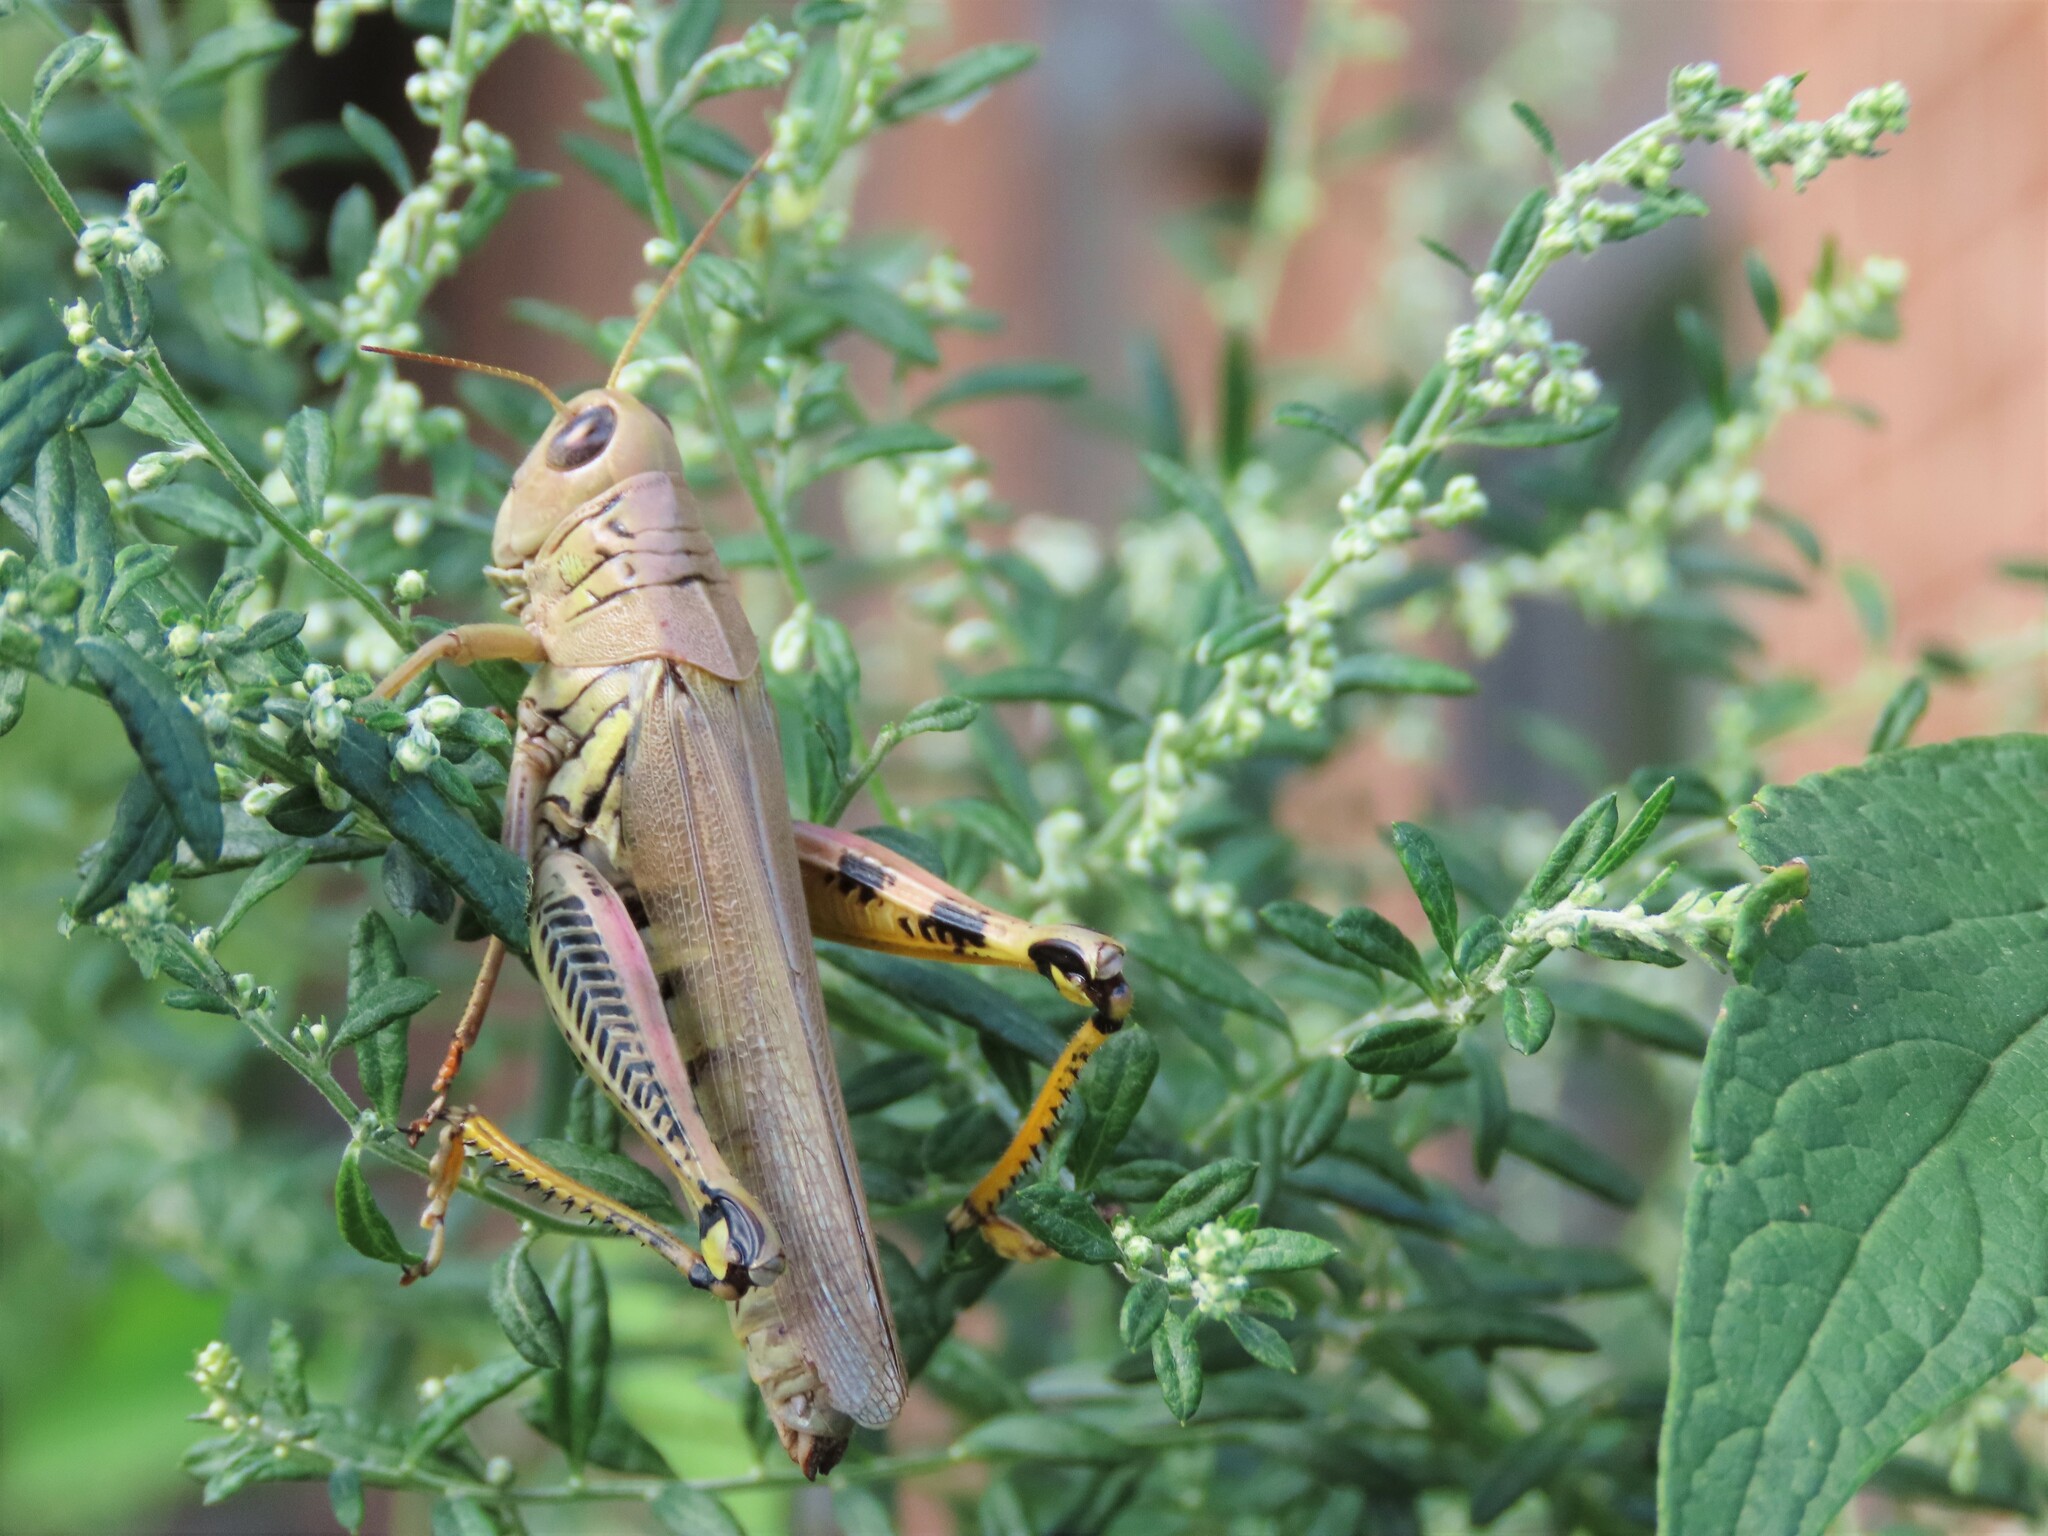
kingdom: Animalia
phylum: Arthropoda
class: Insecta
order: Orthoptera
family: Acrididae
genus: Melanoplus
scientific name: Melanoplus differentialis
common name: Differential grasshopper
